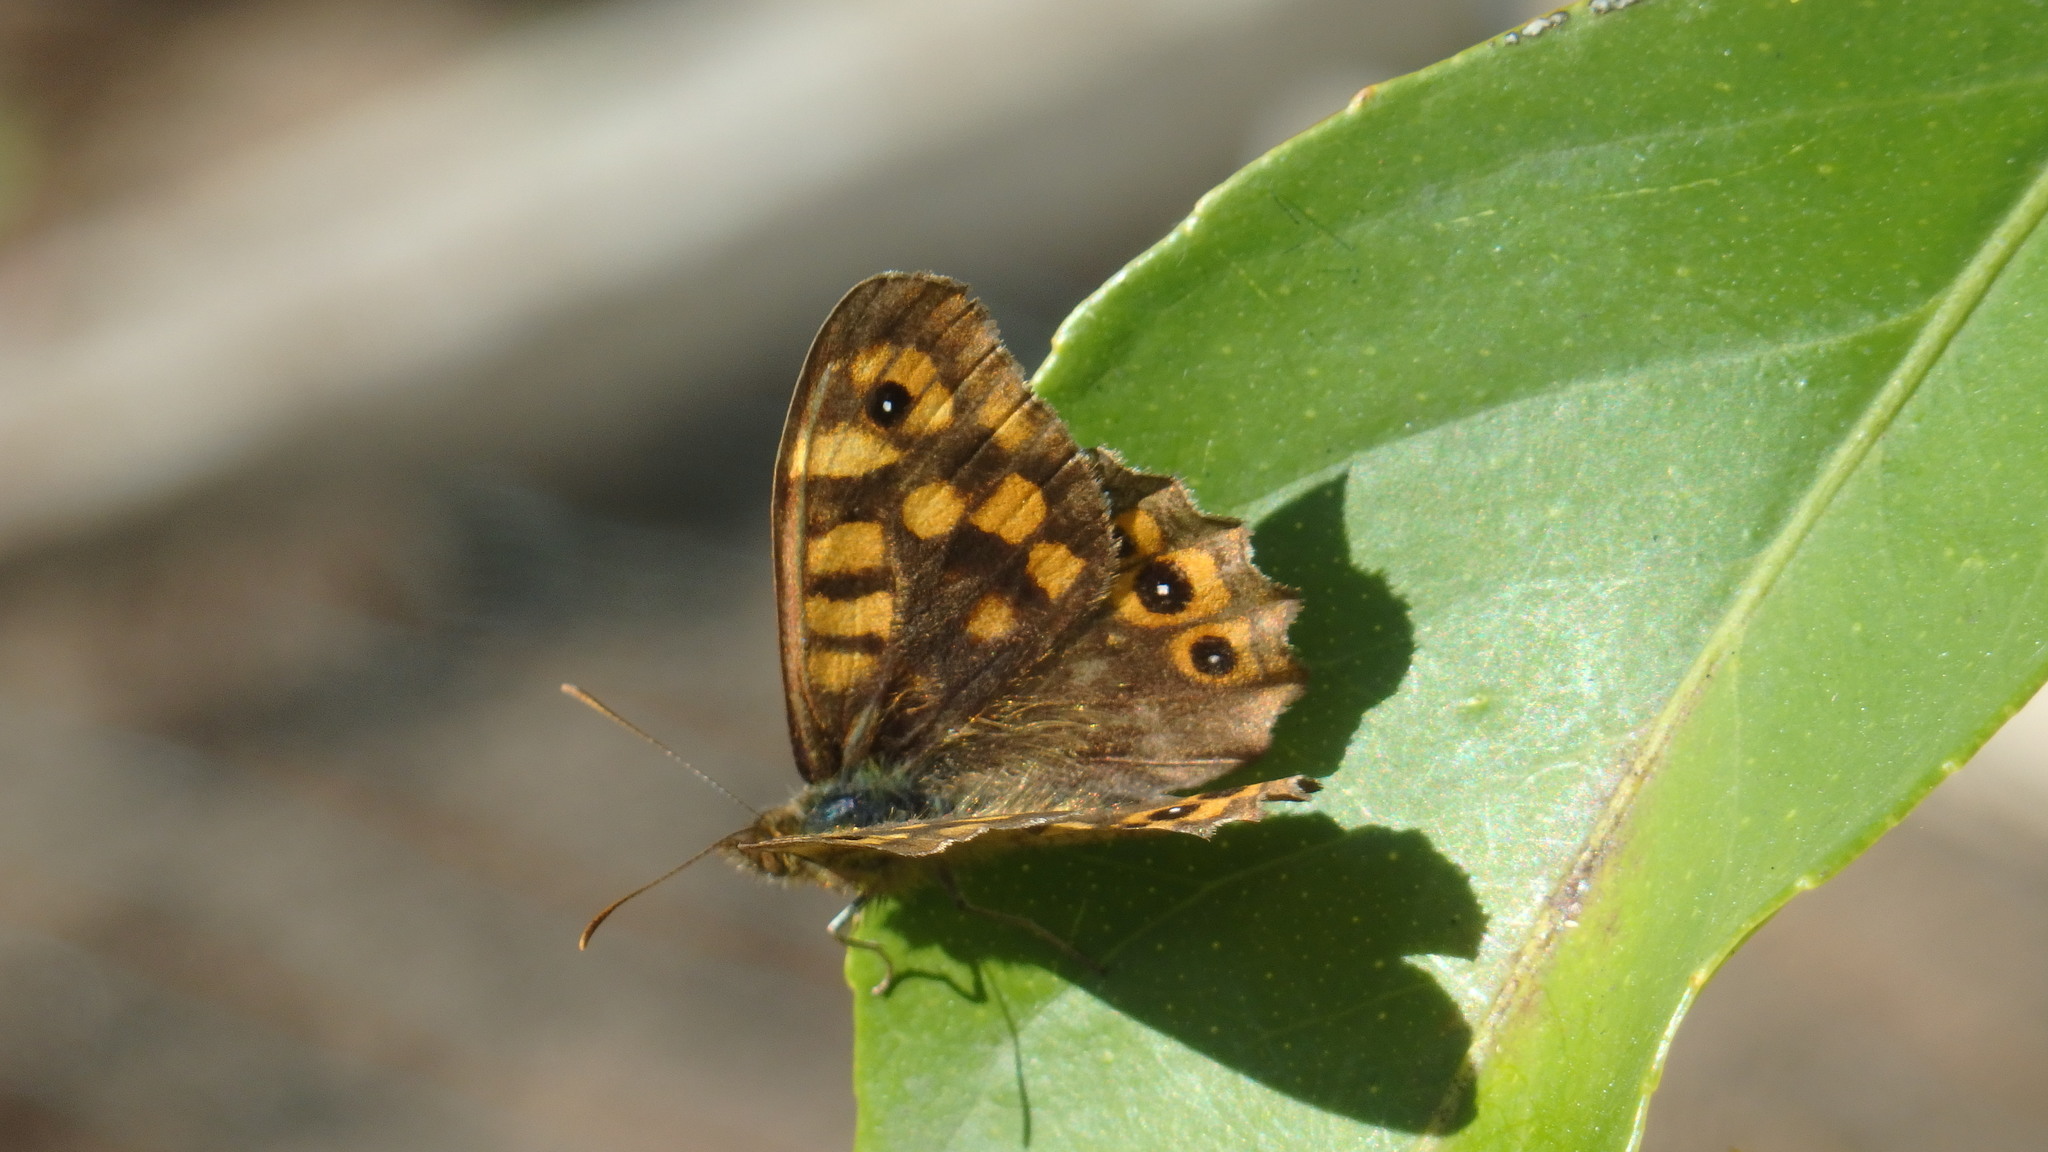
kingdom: Animalia
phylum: Arthropoda
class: Insecta
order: Lepidoptera
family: Nymphalidae
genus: Pararge
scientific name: Pararge aegeria
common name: Speckled wood
